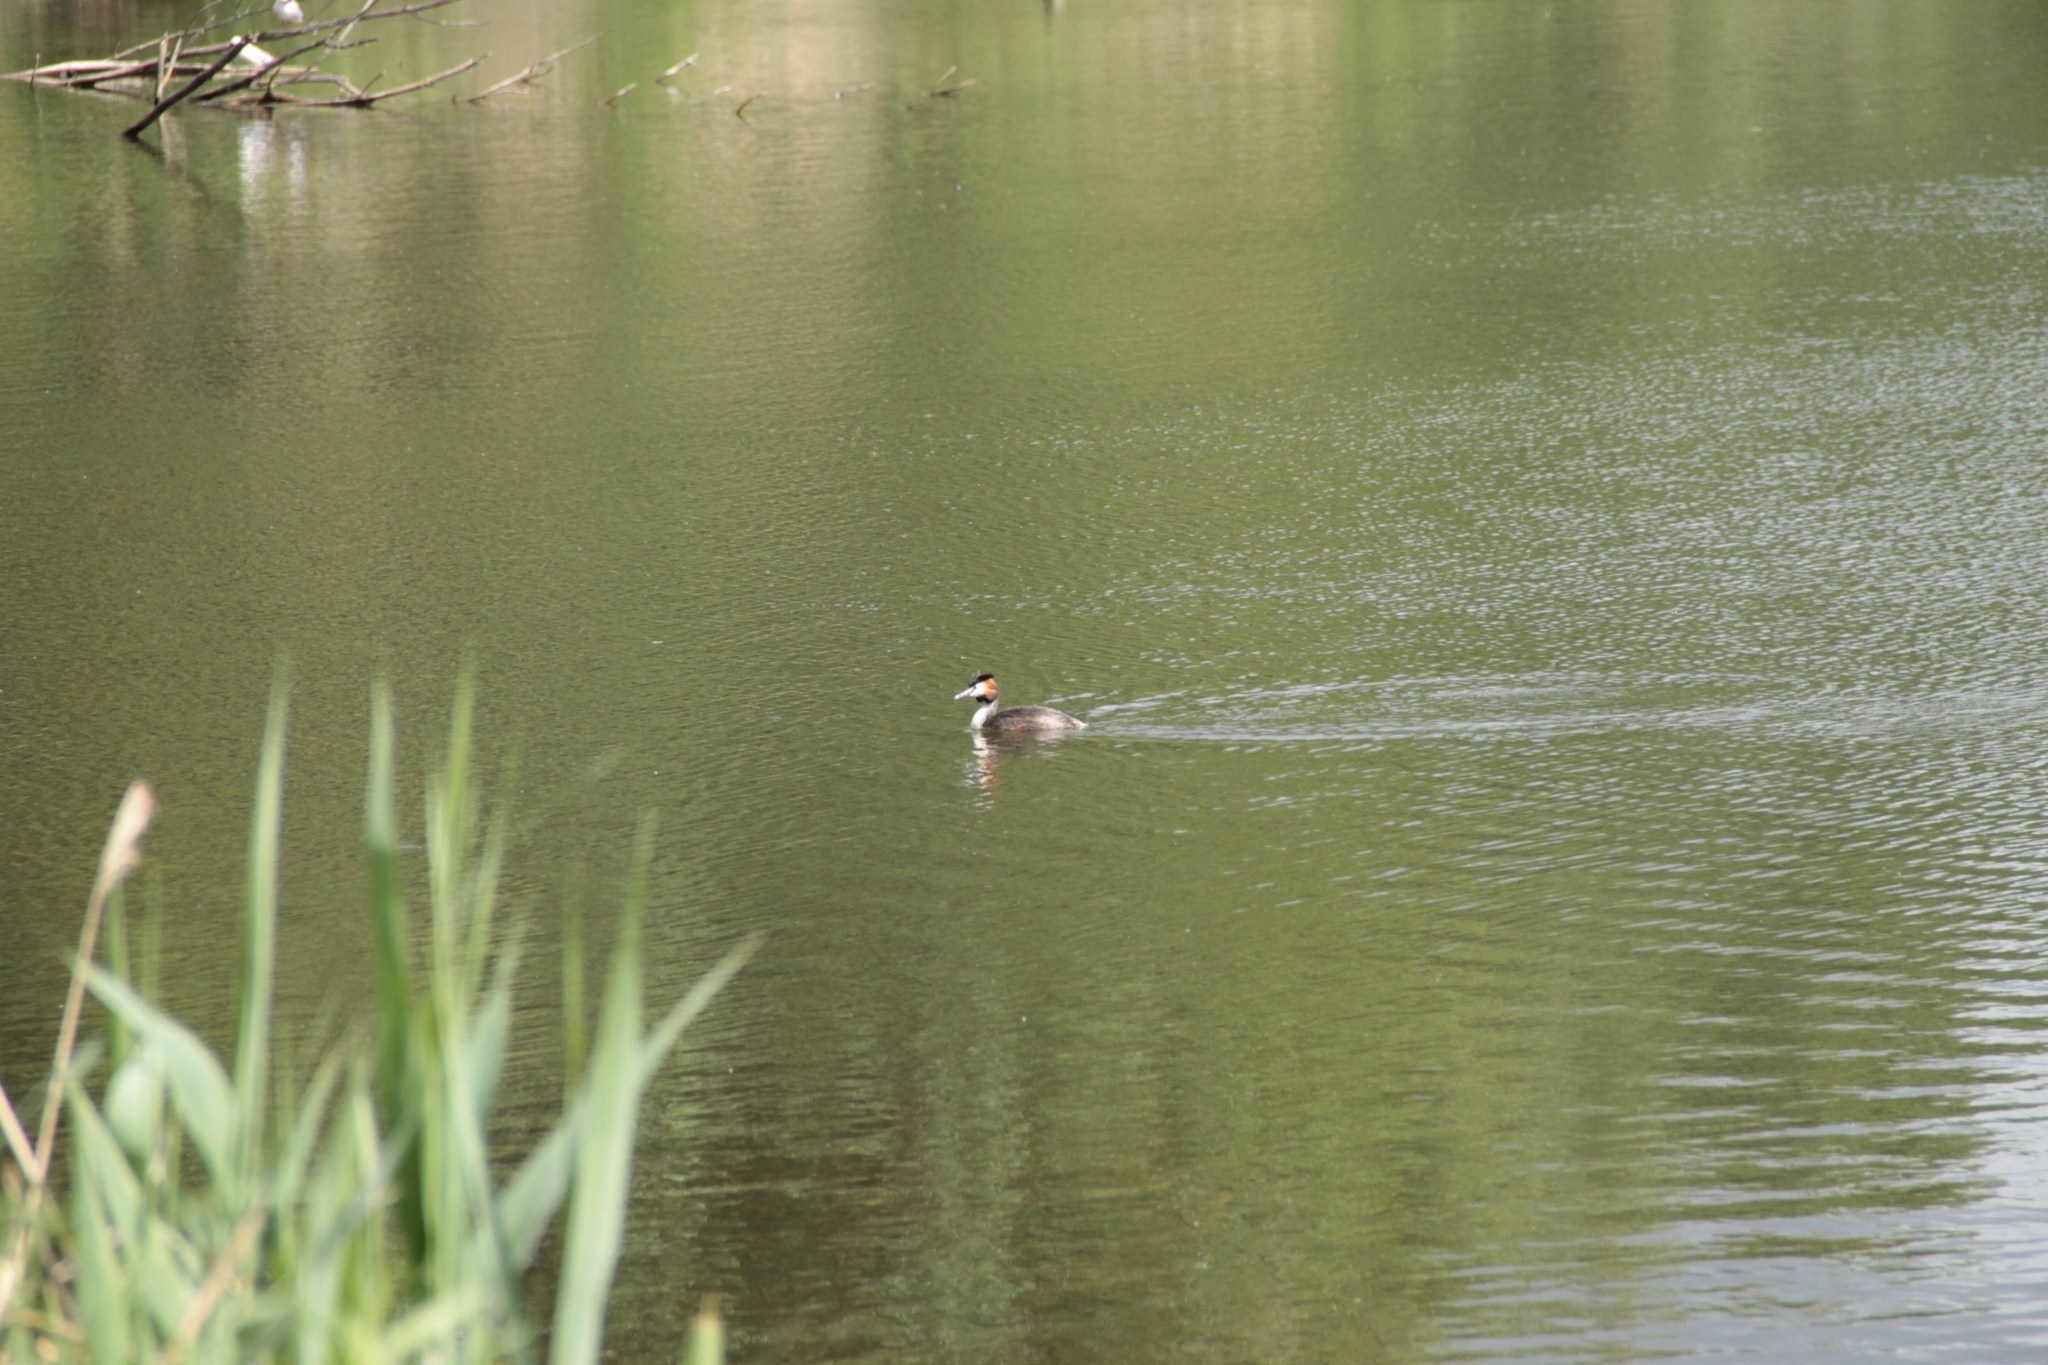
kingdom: Animalia
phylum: Chordata
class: Aves
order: Podicipediformes
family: Podicipedidae
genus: Podiceps
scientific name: Podiceps cristatus
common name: Great crested grebe
